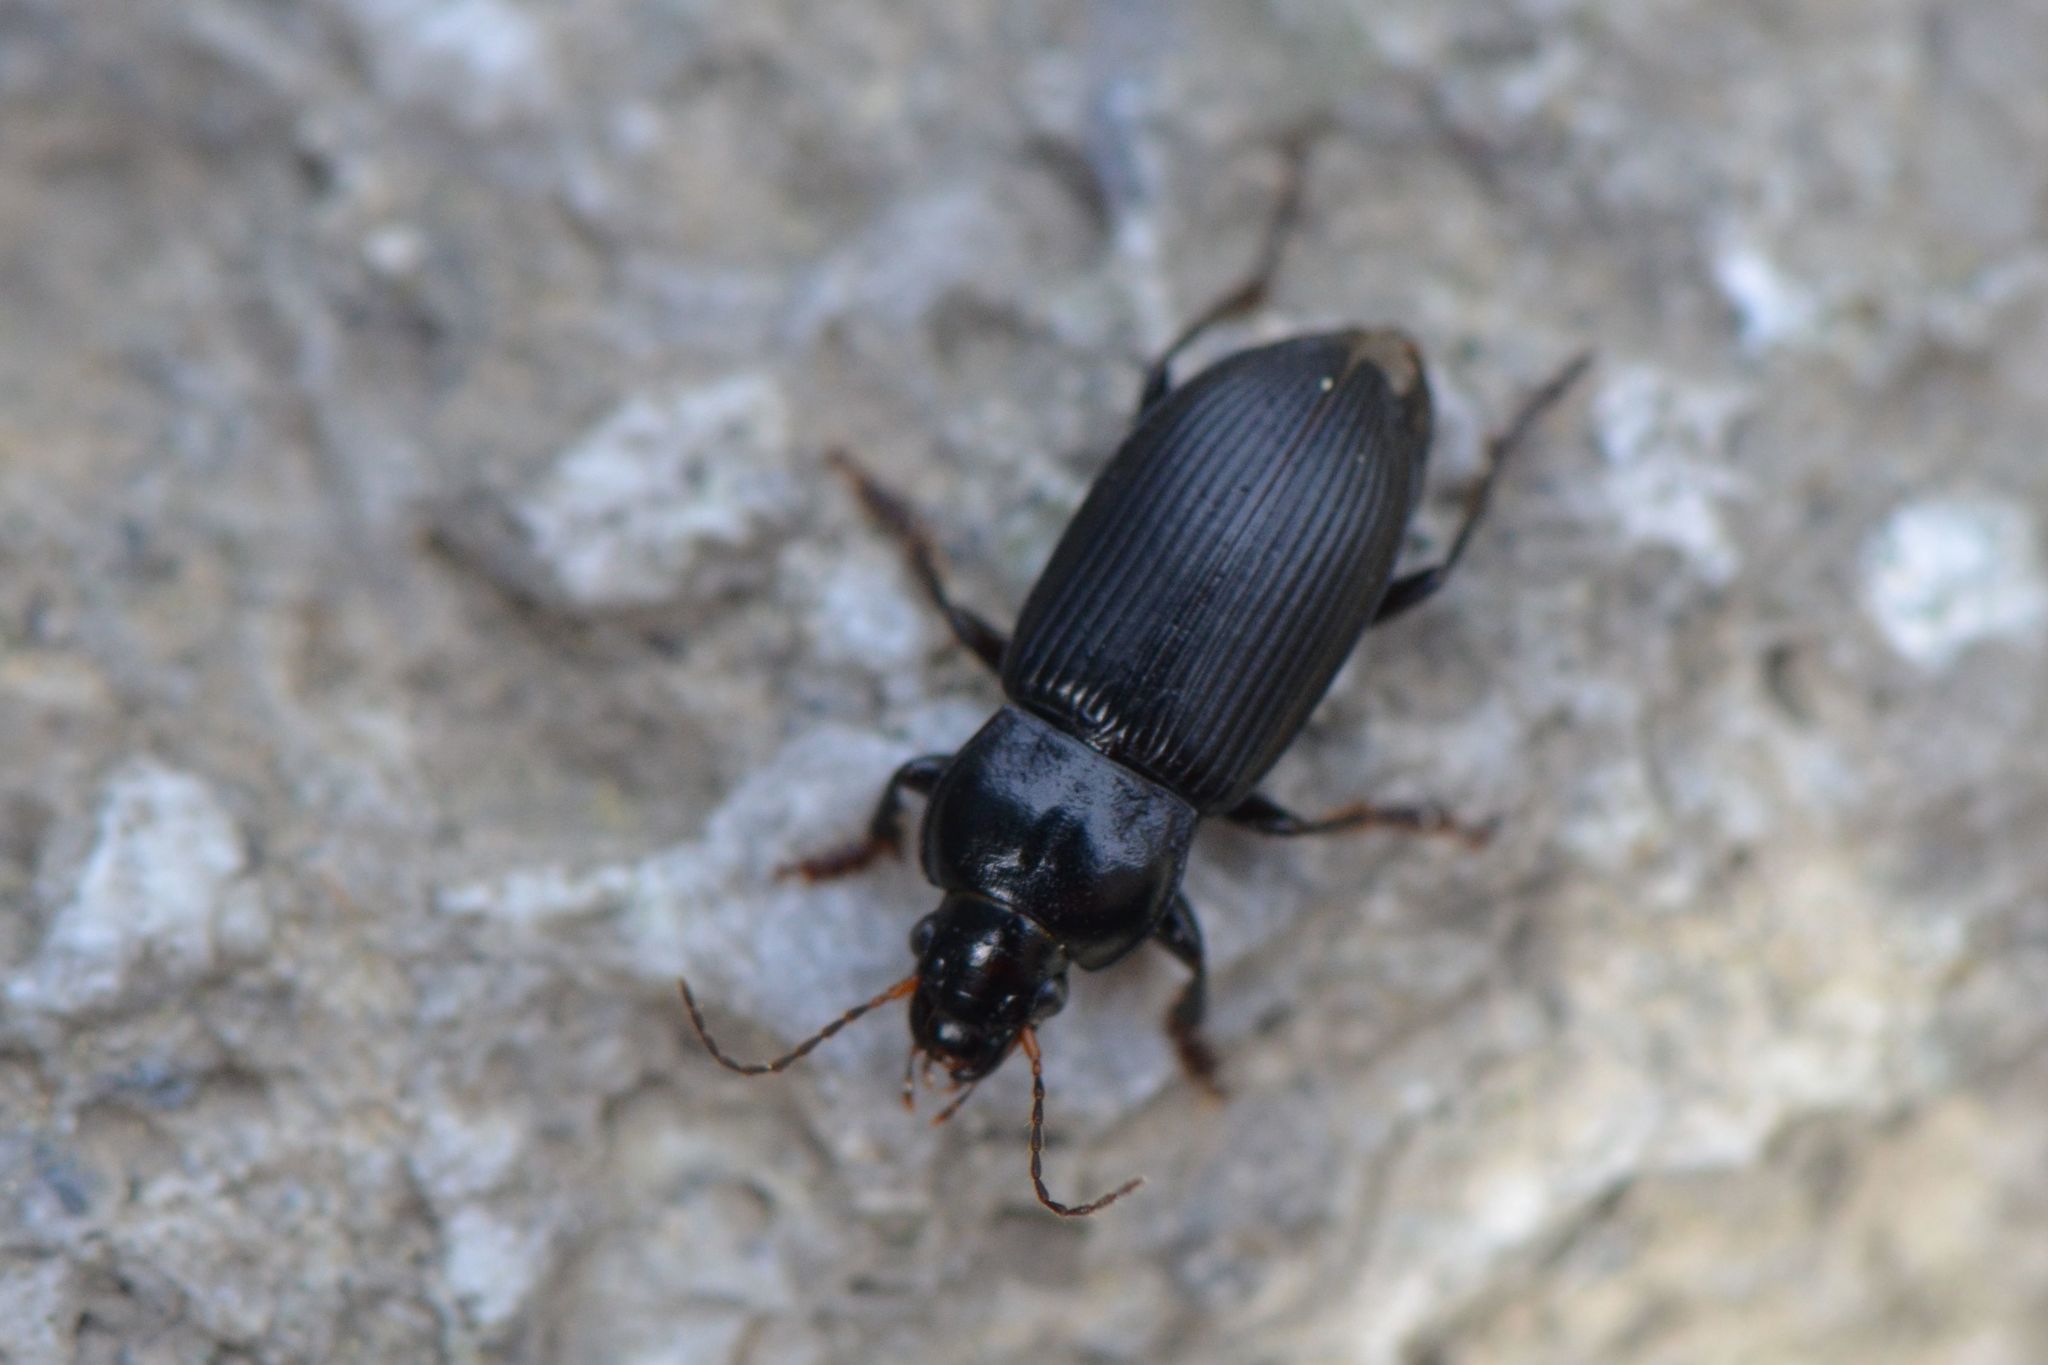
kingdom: Animalia
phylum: Arthropoda
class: Insecta
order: Coleoptera
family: Carabidae
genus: Anisodactylus
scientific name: Anisodactylus binotatus
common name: Two-marked harp ground beetle
